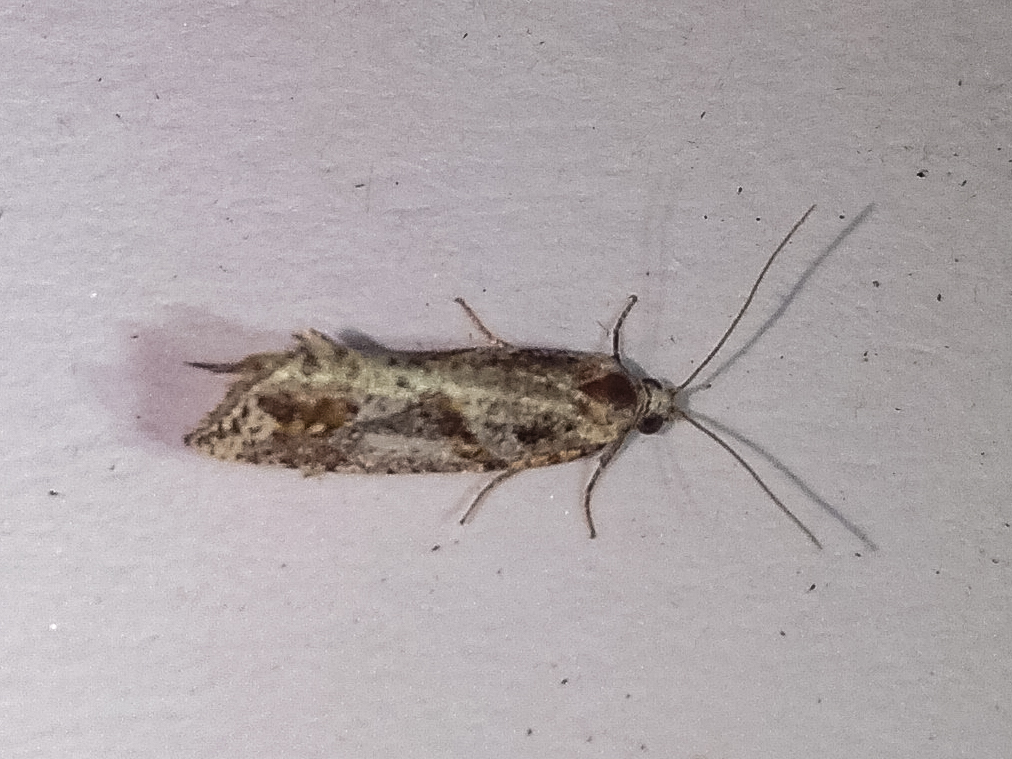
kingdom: Animalia
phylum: Arthropoda
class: Insecta
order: Lepidoptera
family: Tortricidae
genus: Pyrgotis
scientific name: Pyrgotis plagiatana
